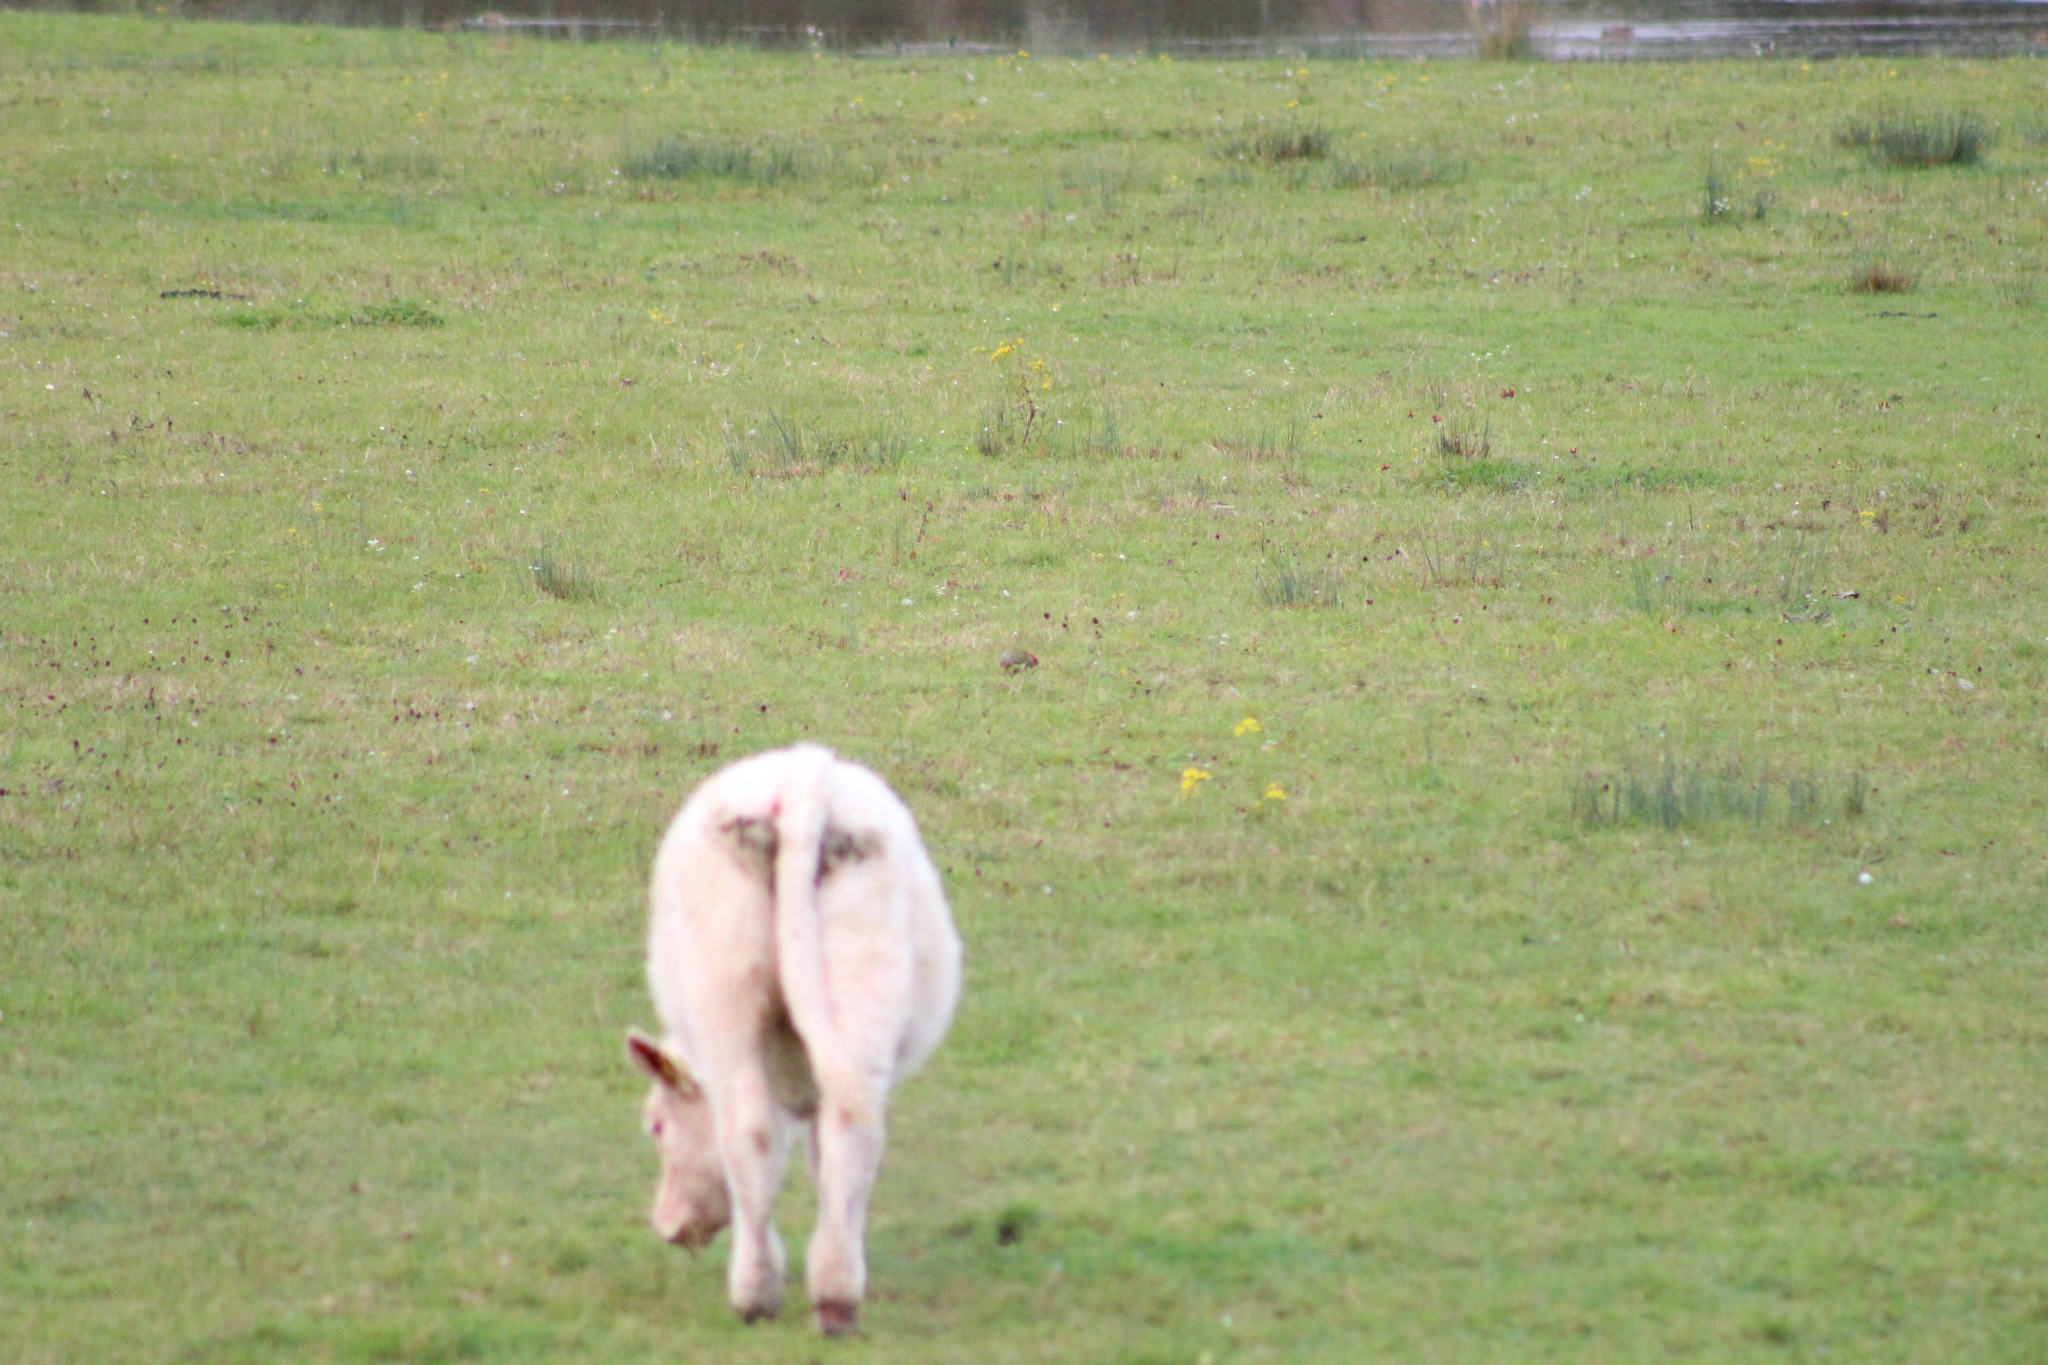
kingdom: Animalia
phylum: Chordata
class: Aves
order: Piciformes
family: Picidae
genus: Picus
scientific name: Picus viridis
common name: European green woodpecker
